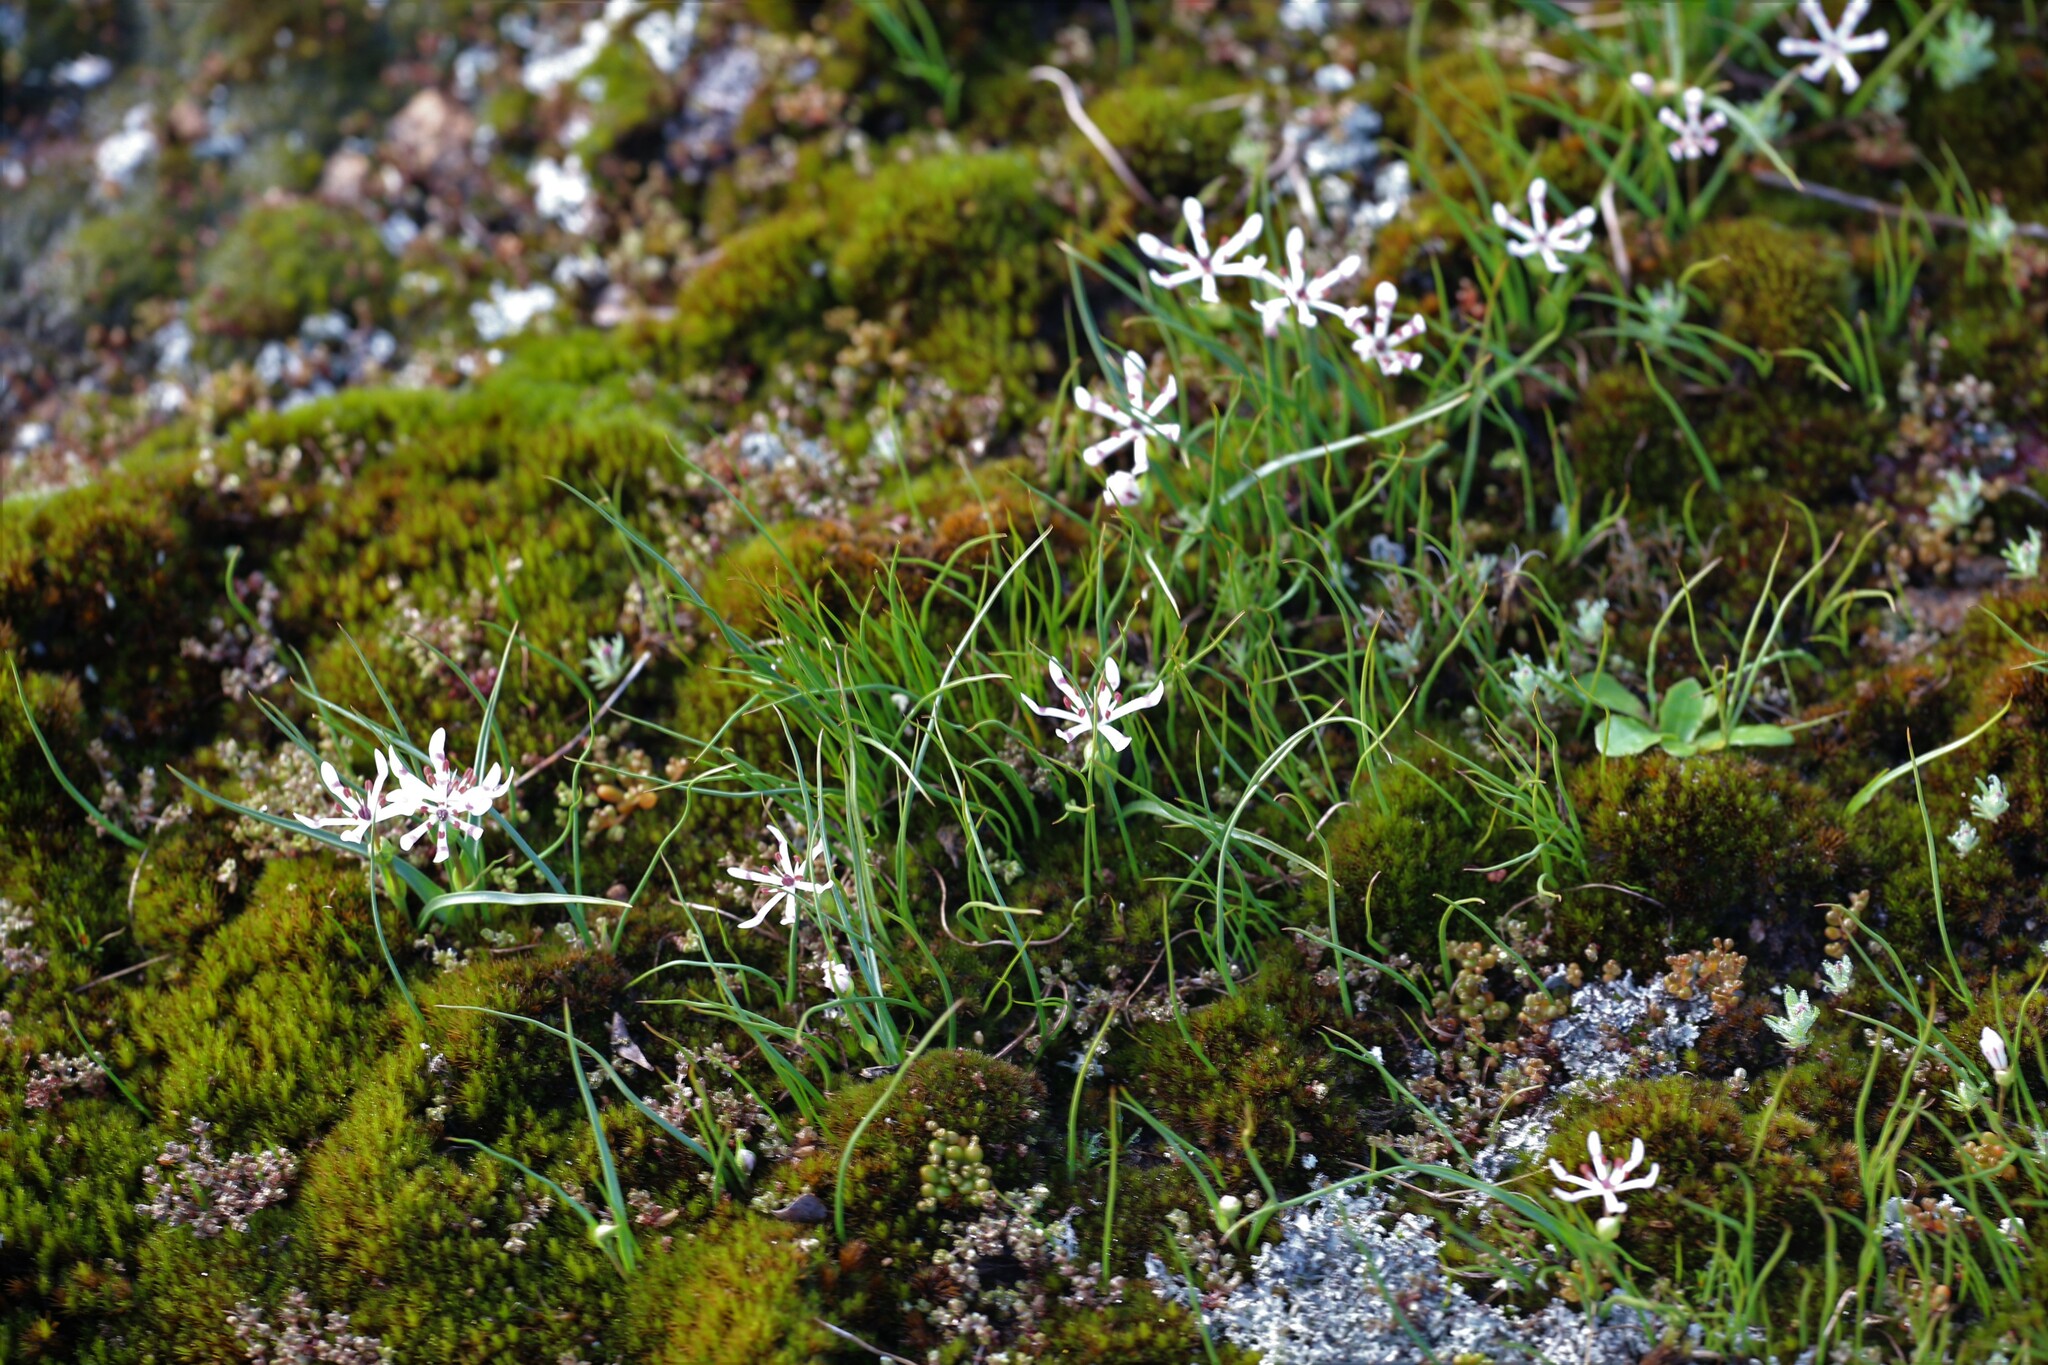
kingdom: Plantae
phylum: Tracheophyta
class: Liliopsida
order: Liliales
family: Colchicaceae
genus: Wurmbea
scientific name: Wurmbea graniticola
